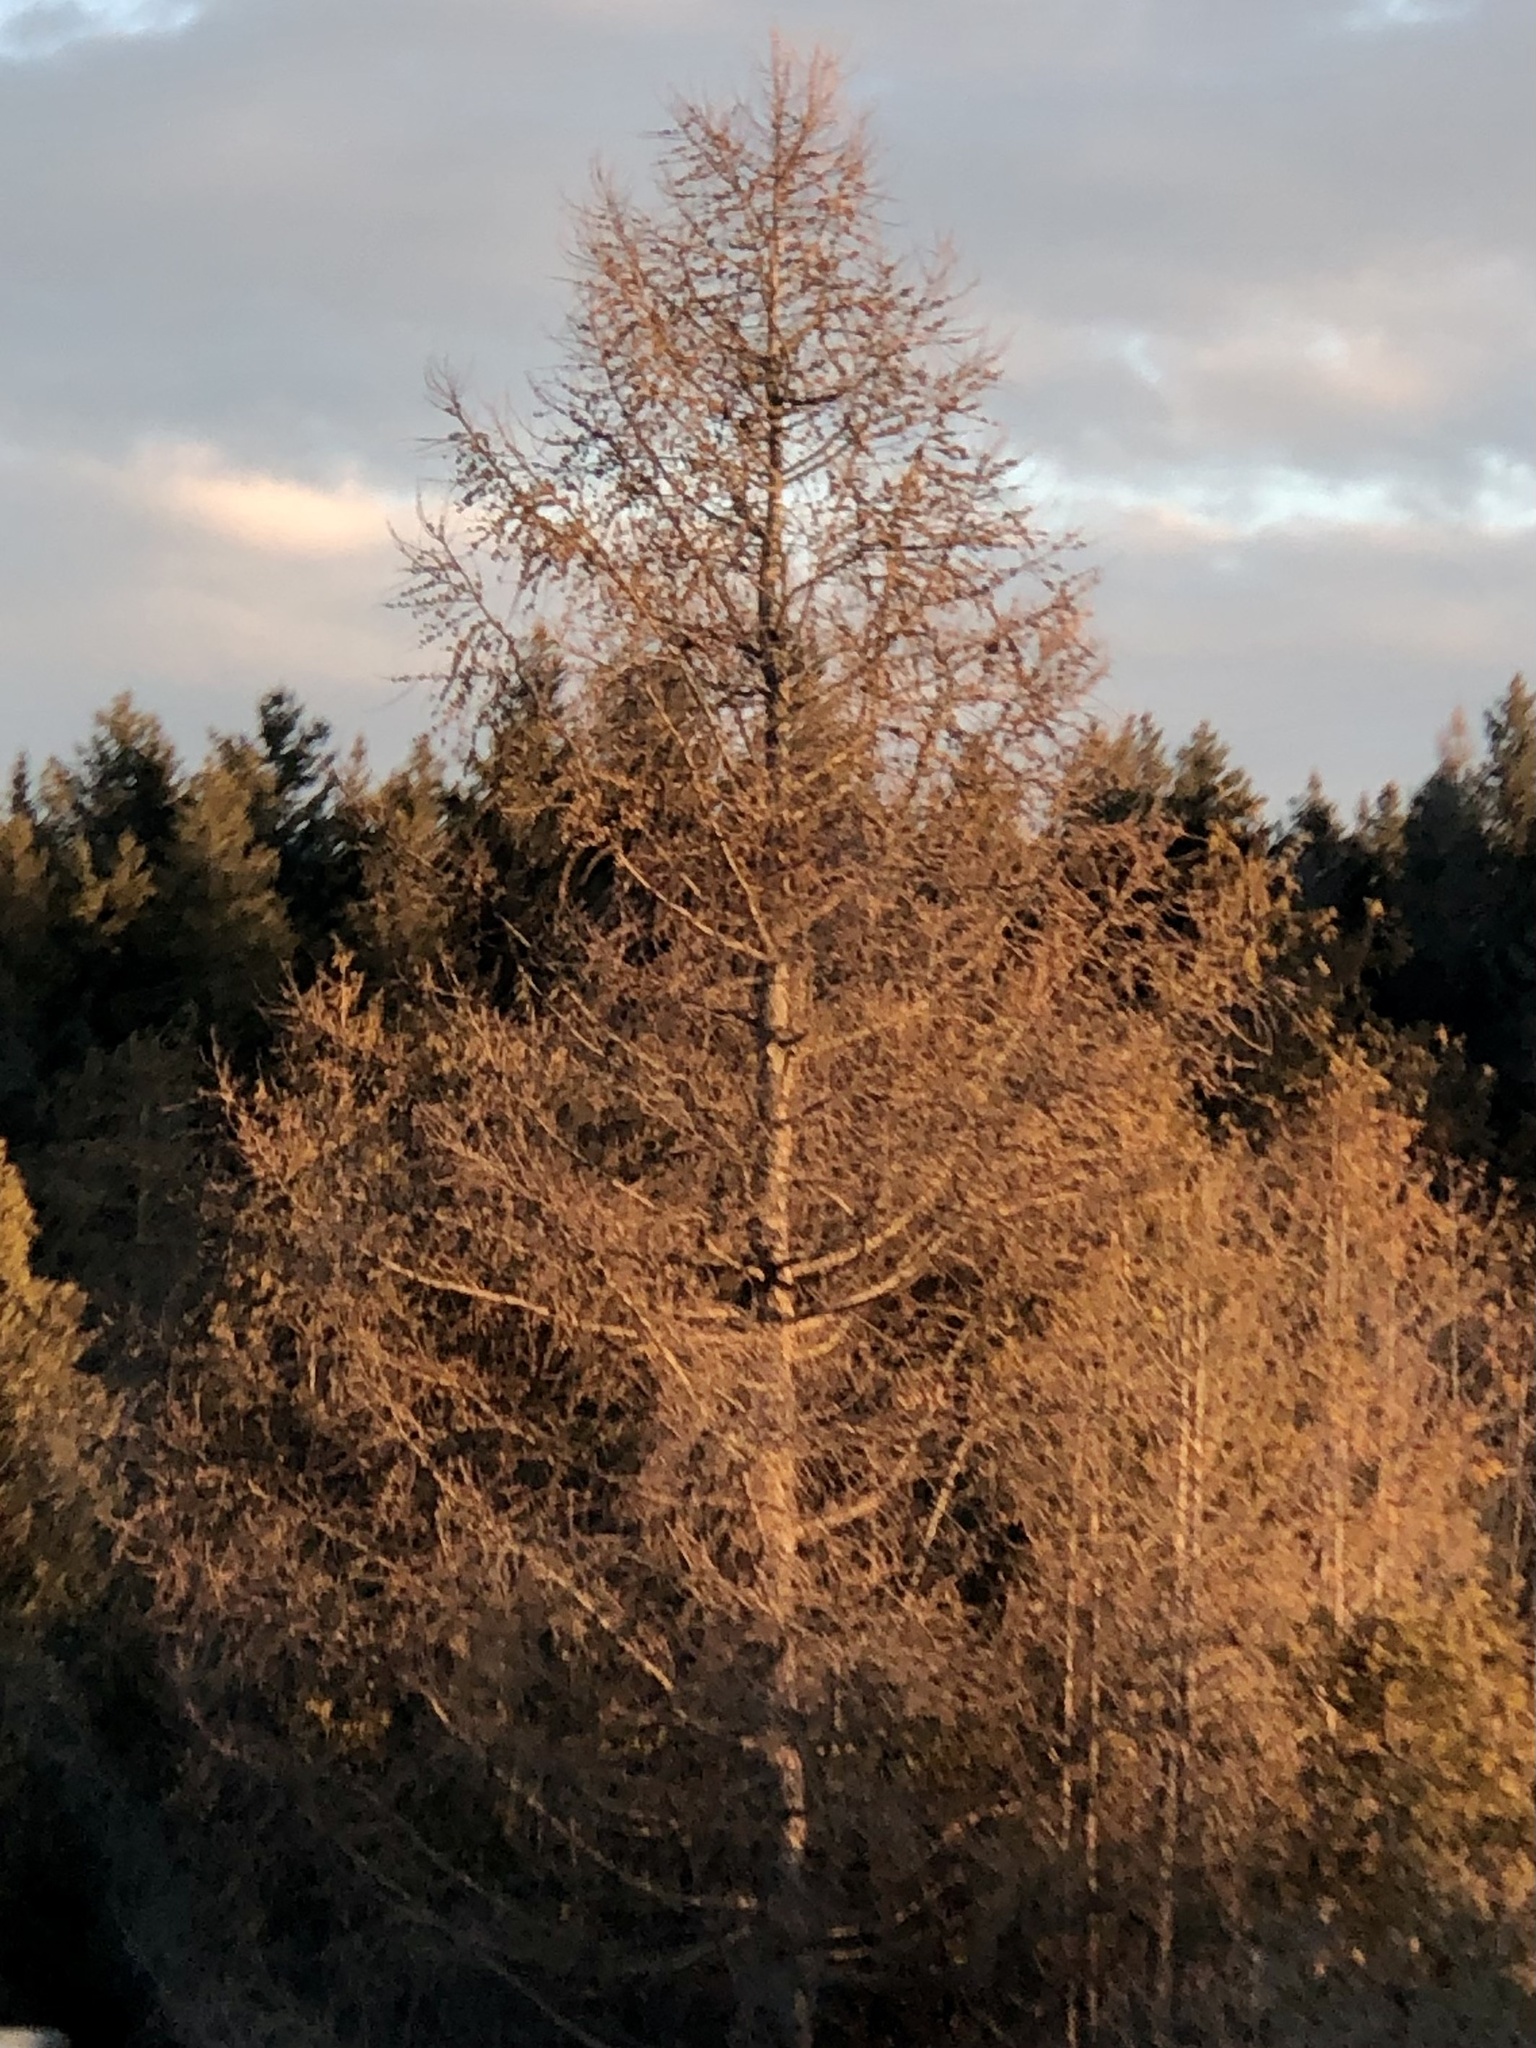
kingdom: Plantae
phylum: Tracheophyta
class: Pinopsida
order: Pinales
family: Pinaceae
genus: Larix
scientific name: Larix laricina
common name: American larch
